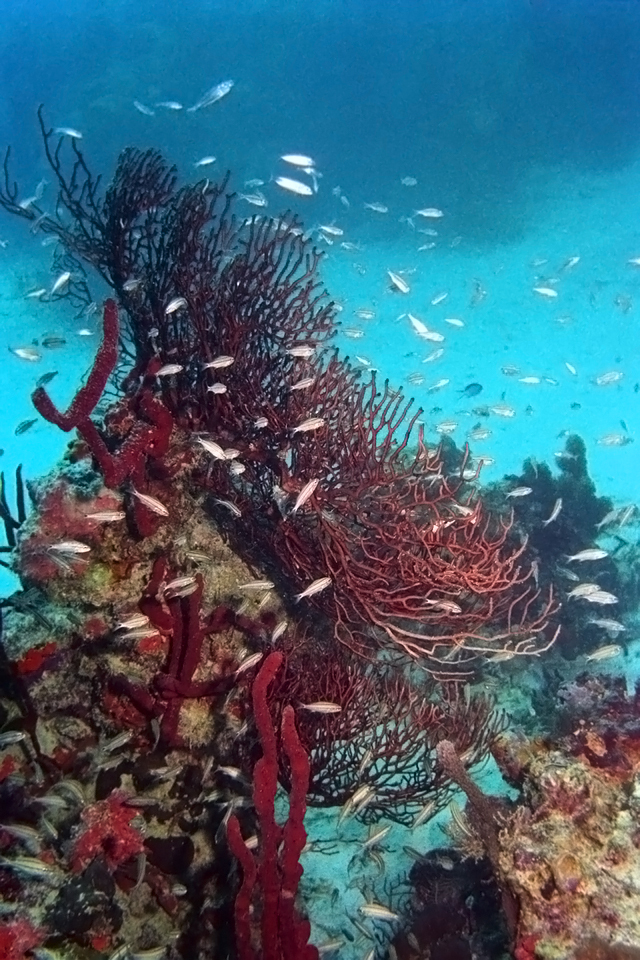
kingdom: Animalia
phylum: Cnidaria
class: Anthozoa
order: Malacalcyonacea
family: Melithaeidae
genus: Iciligorgia
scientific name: Iciligorgia schrammi
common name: Black sea fan
